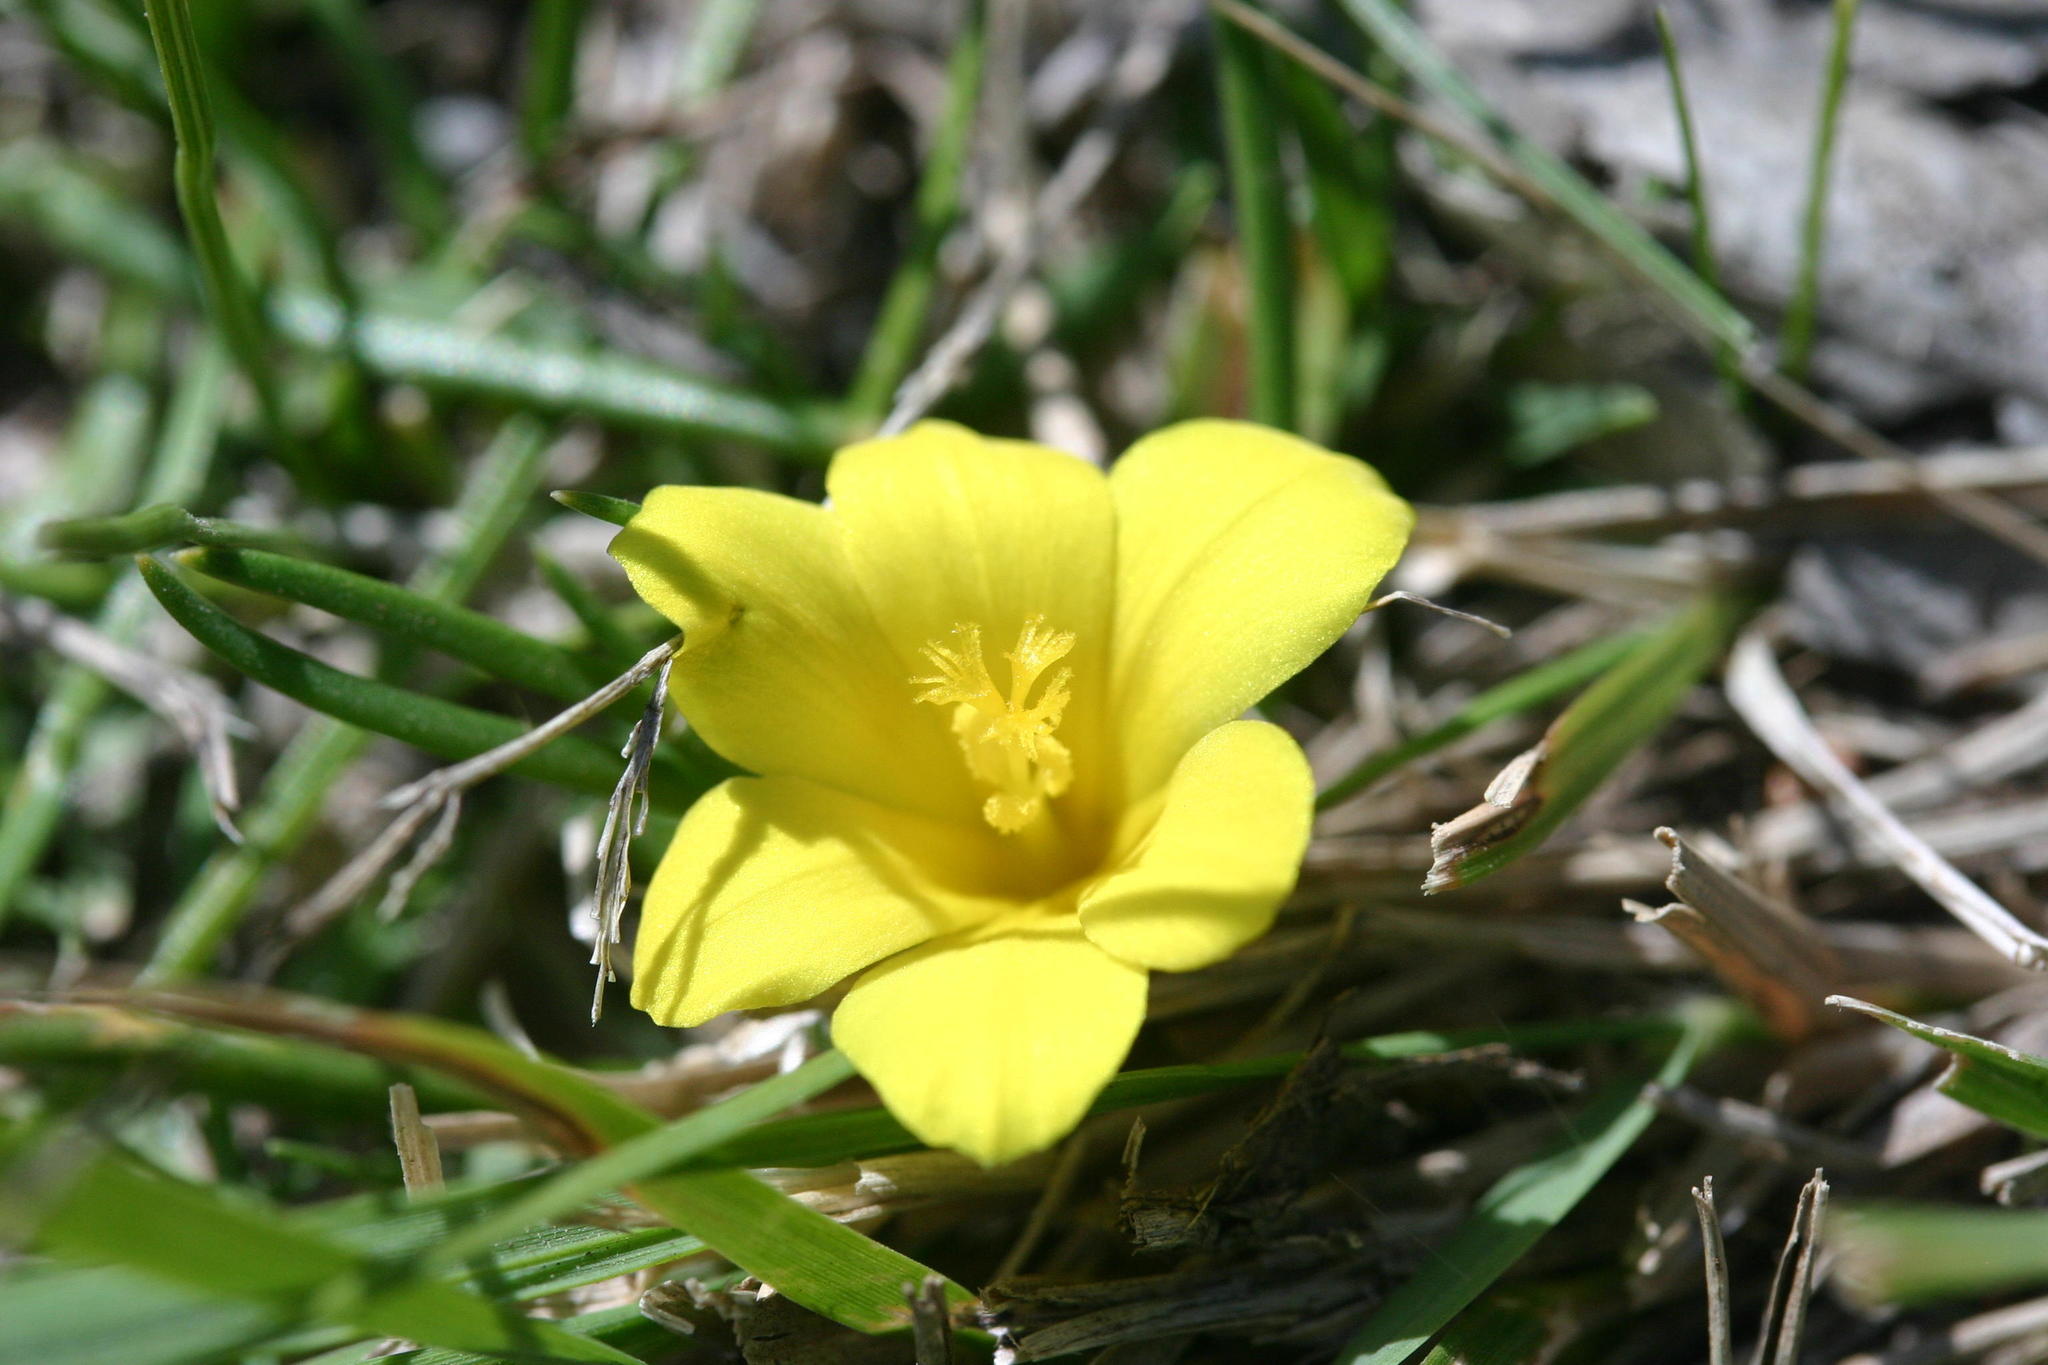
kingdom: Plantae
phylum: Tracheophyta
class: Liliopsida
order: Asparagales
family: Iridaceae
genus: Moraea
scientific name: Moraea fugacissima
